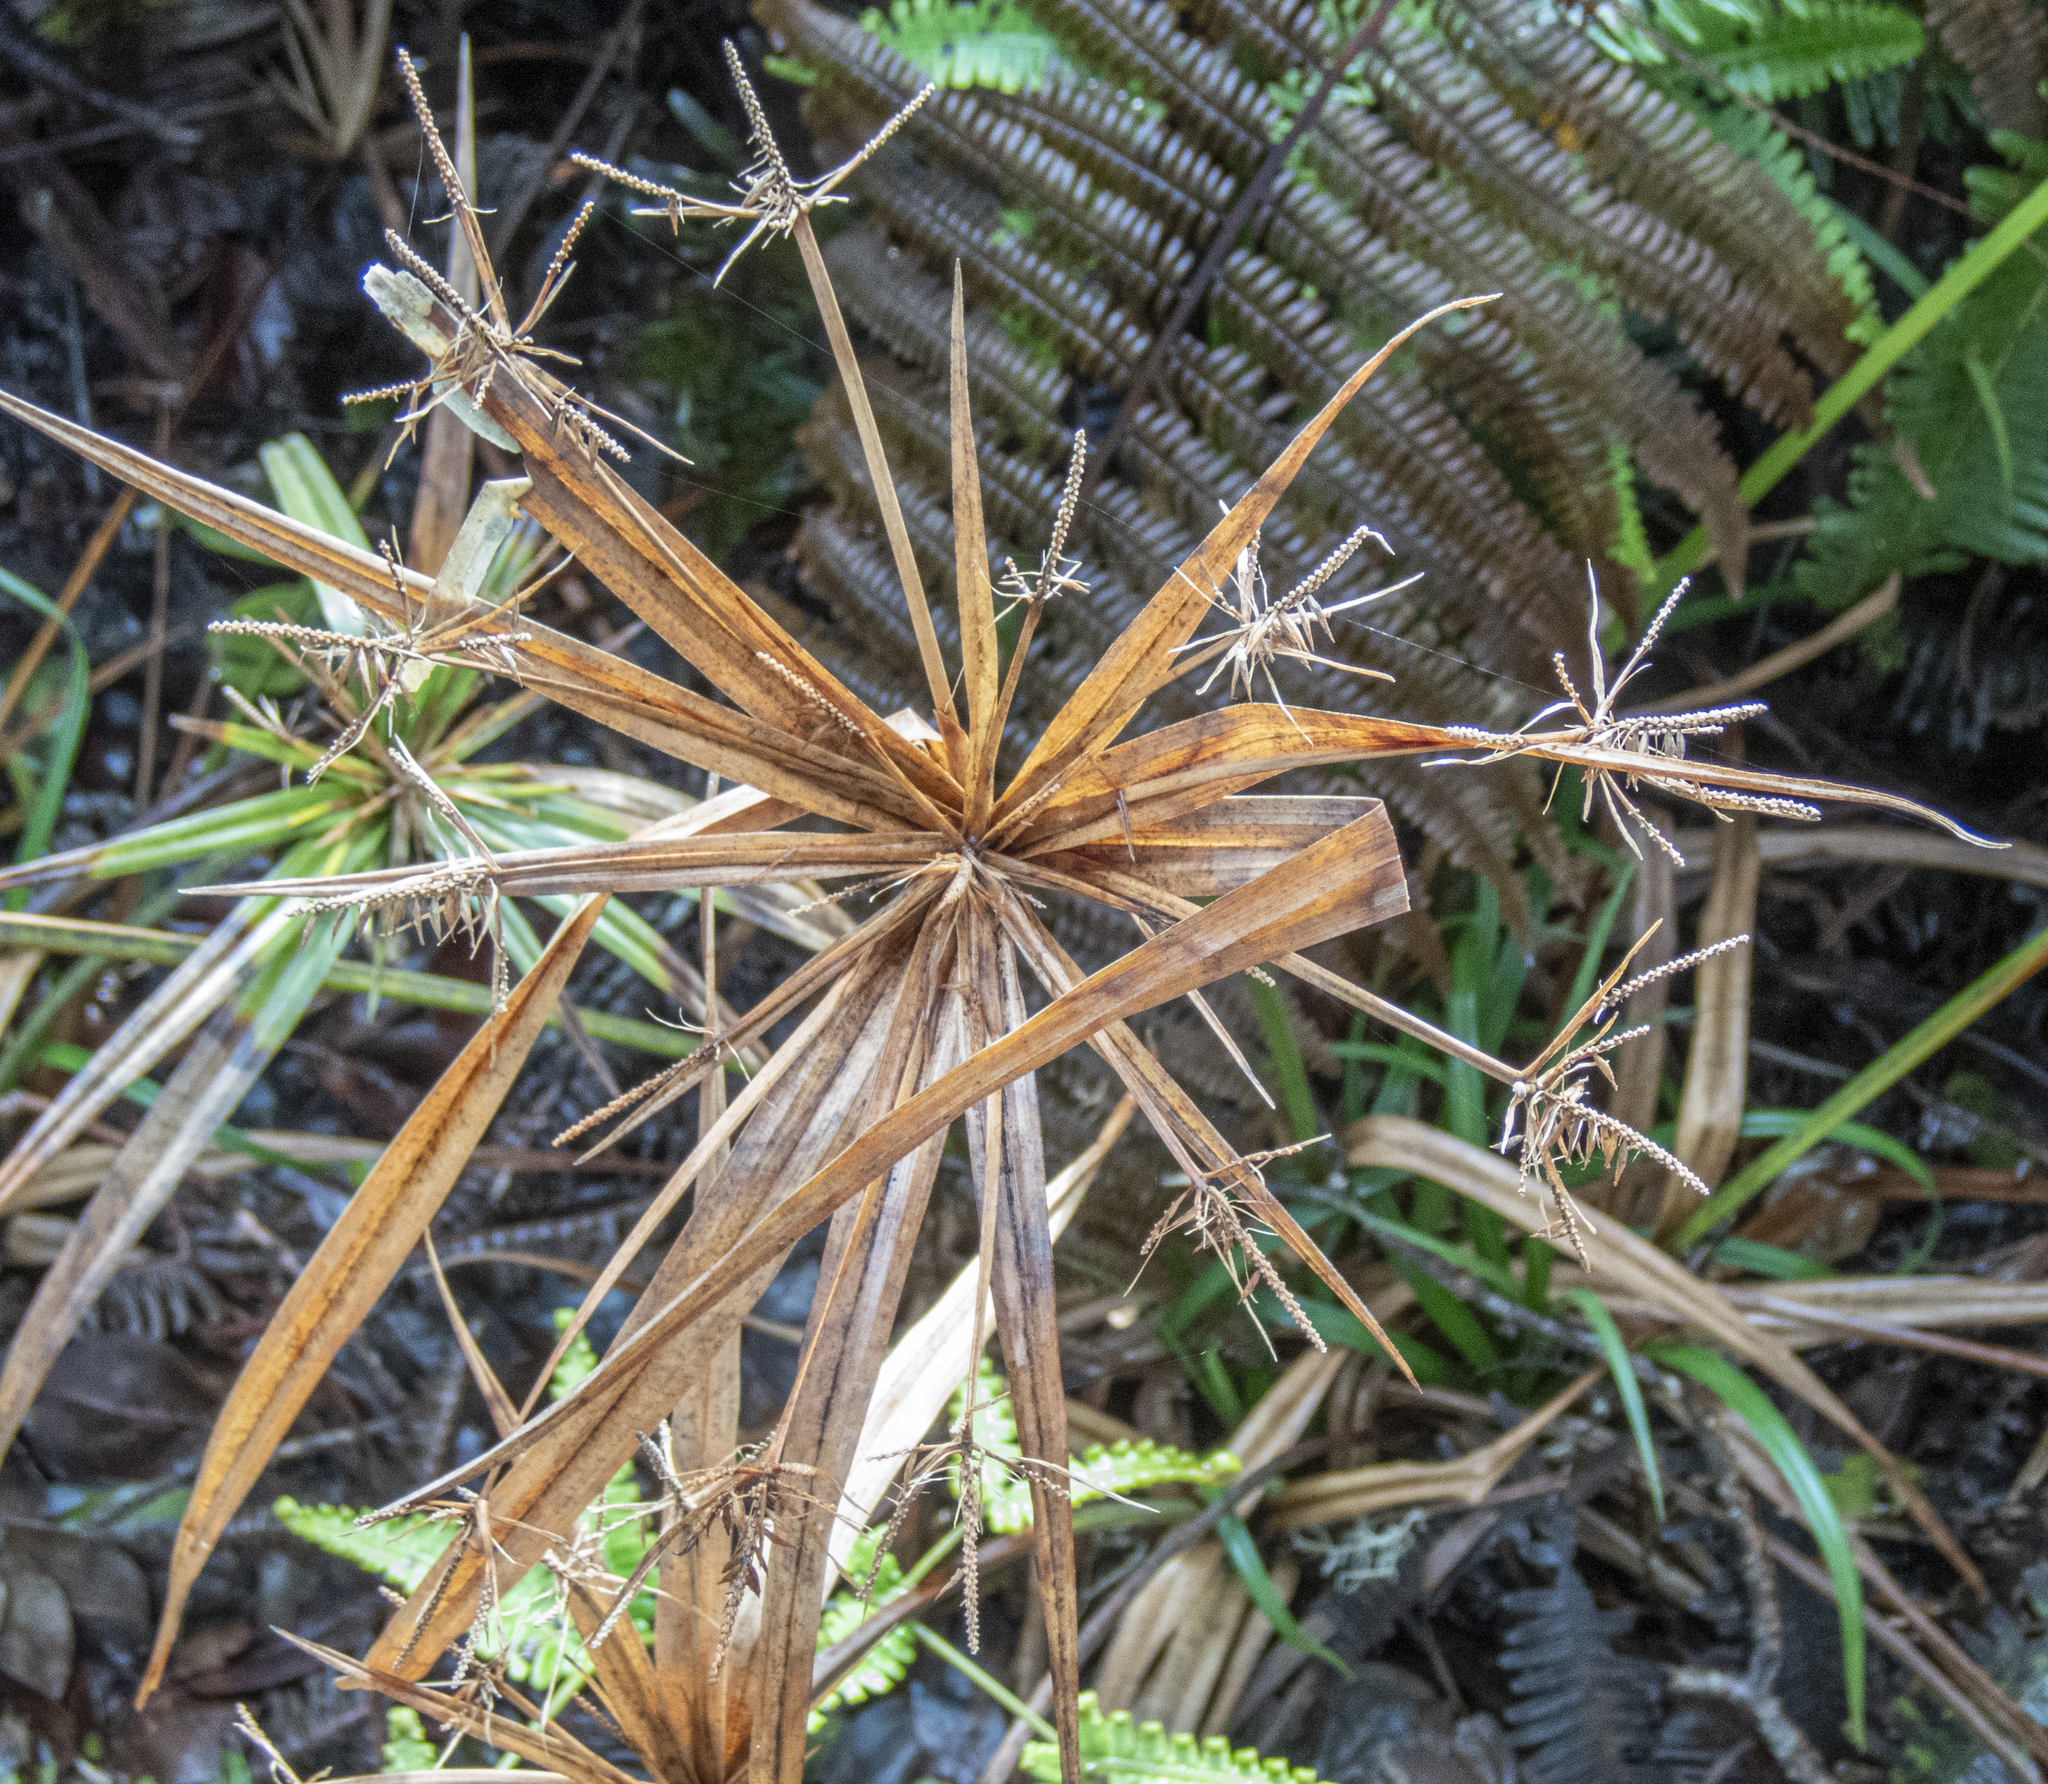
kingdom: Plantae
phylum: Tracheophyta
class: Liliopsida
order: Poales
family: Cyperaceae
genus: Cyperus
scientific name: Cyperus meyenianus
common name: Meyen's flatsedge
